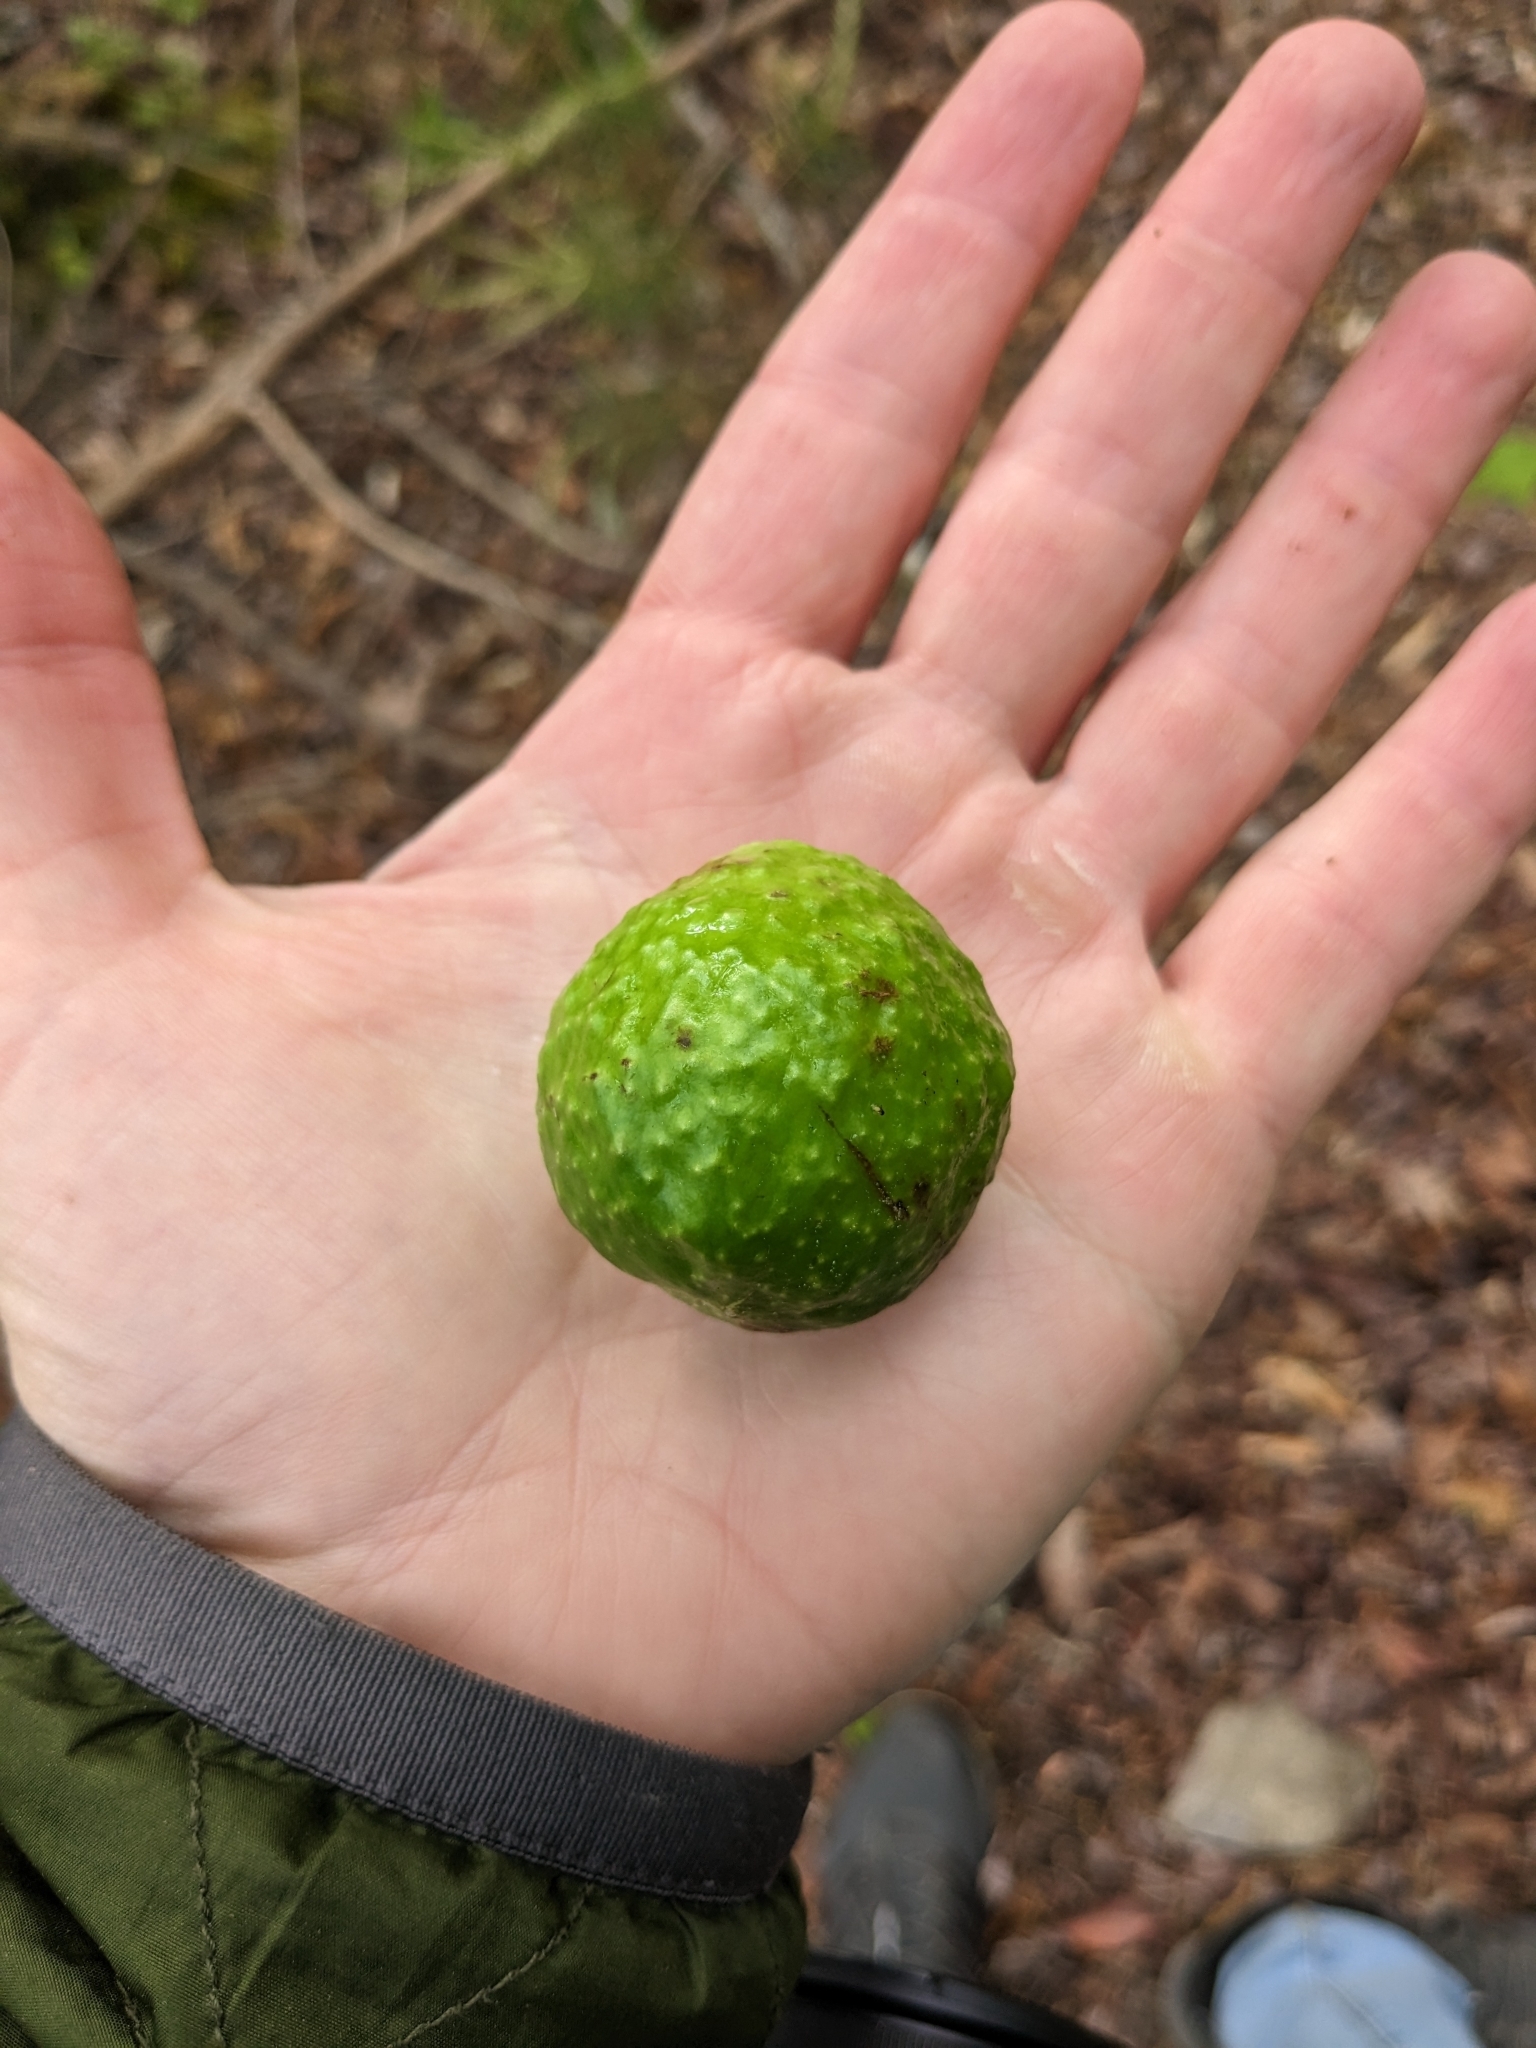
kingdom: Animalia
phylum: Arthropoda
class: Insecta
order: Hymenoptera
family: Cynipidae
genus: Amphibolips
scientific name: Amphibolips
